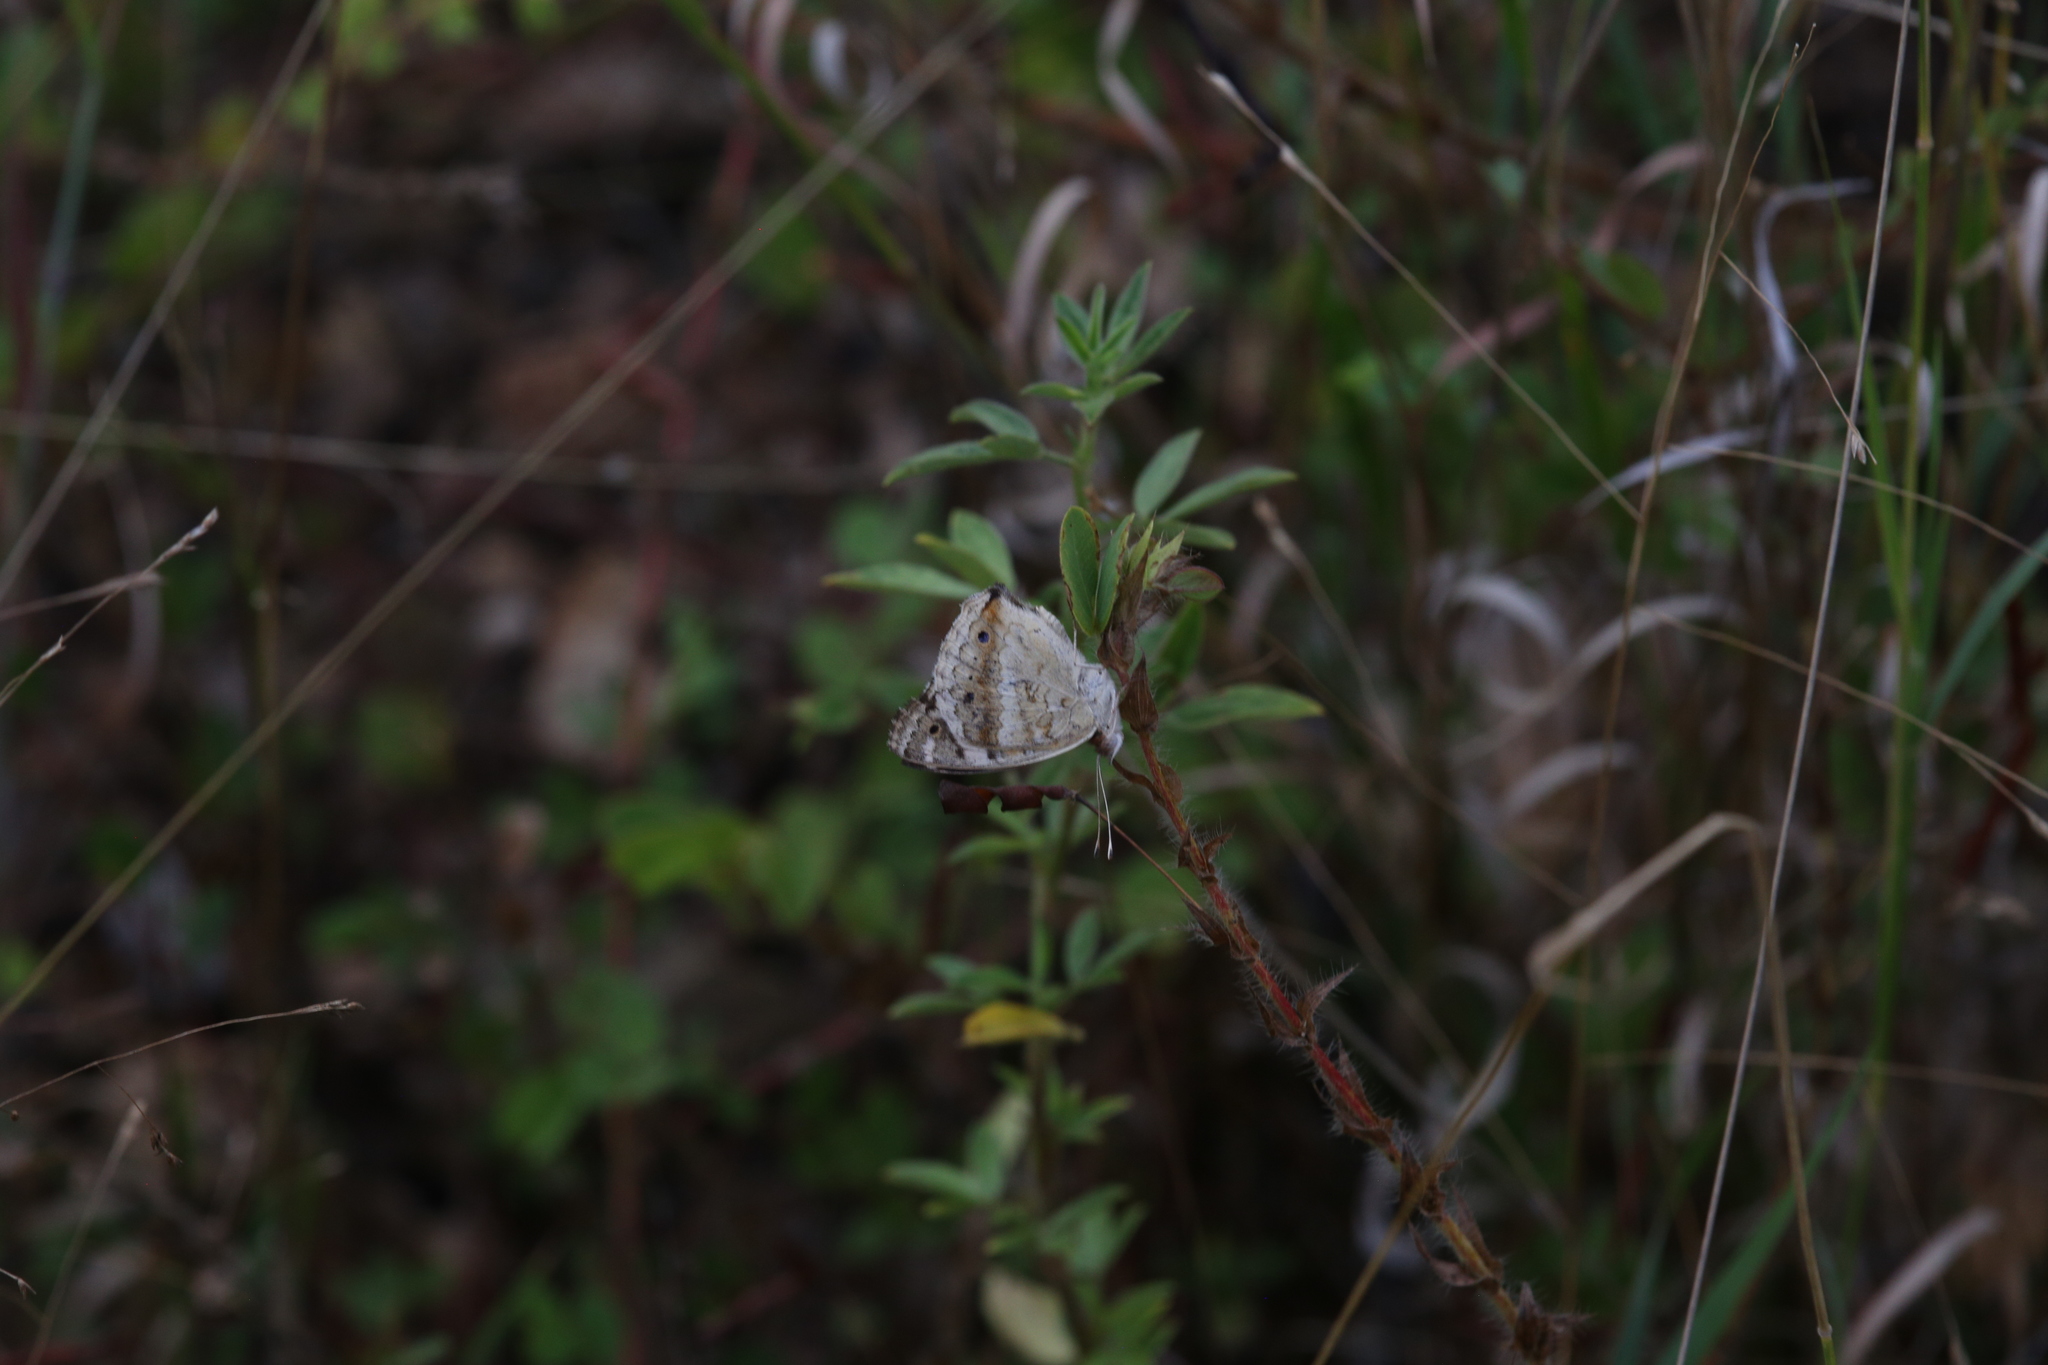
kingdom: Animalia
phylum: Arthropoda
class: Insecta
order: Lepidoptera
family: Nymphalidae
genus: Junonia
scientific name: Junonia orithya
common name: Blue pansy
